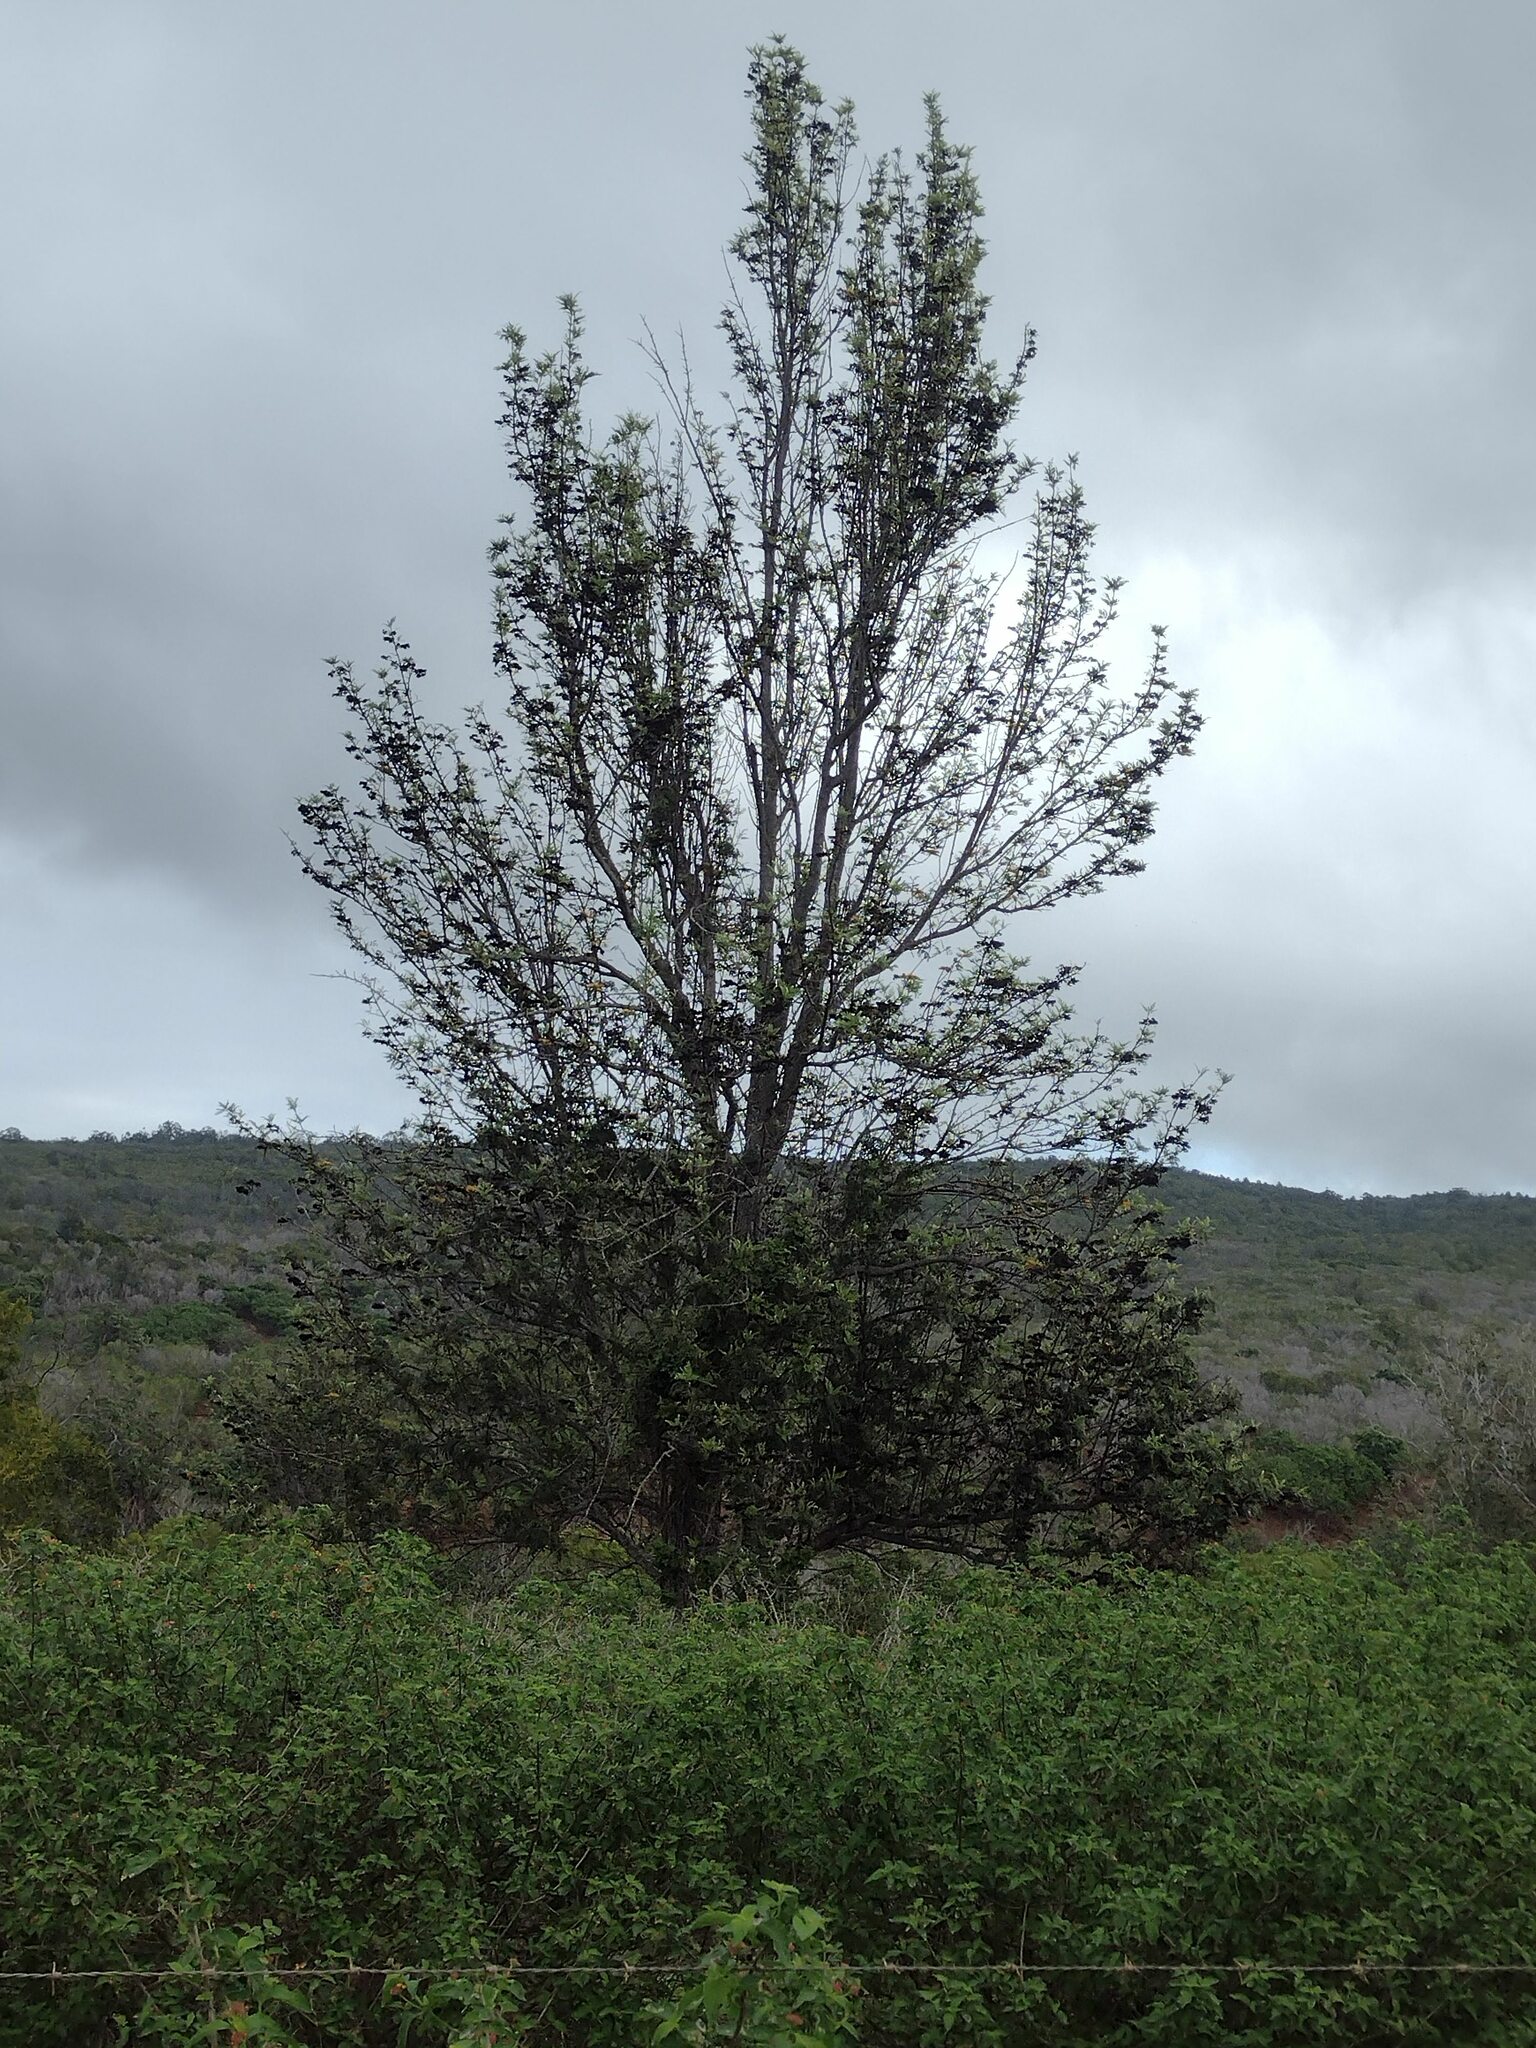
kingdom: Plantae
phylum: Tracheophyta
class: Magnoliopsida
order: Proteales
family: Proteaceae
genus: Grevillea
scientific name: Grevillea robusta
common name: Silkoak
